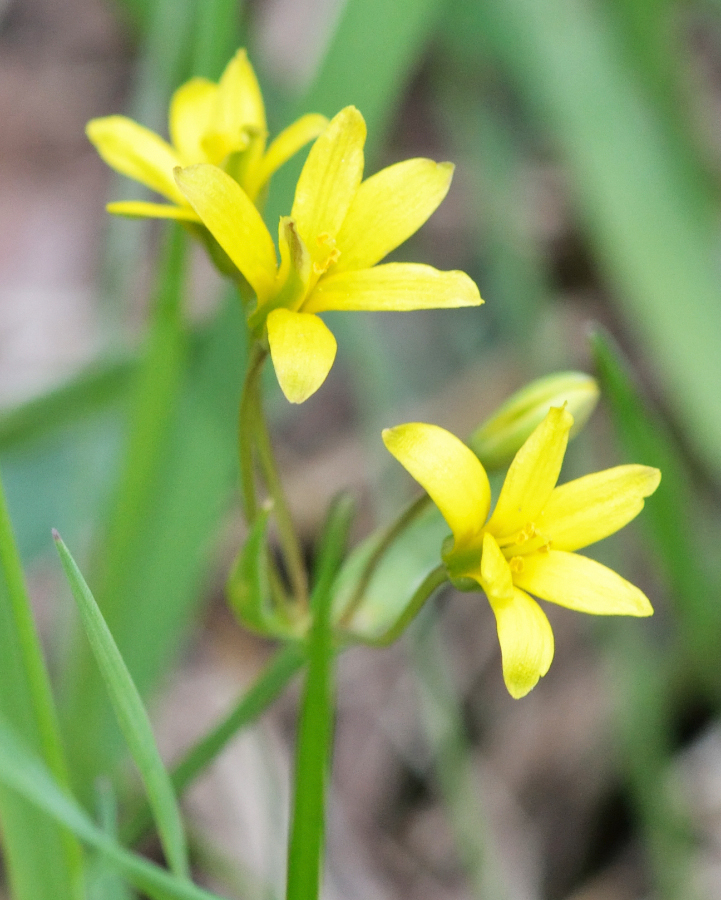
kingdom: Plantae
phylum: Tracheophyta
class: Liliopsida
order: Liliales
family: Liliaceae
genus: Gagea
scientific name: Gagea fragifera
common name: Lily
